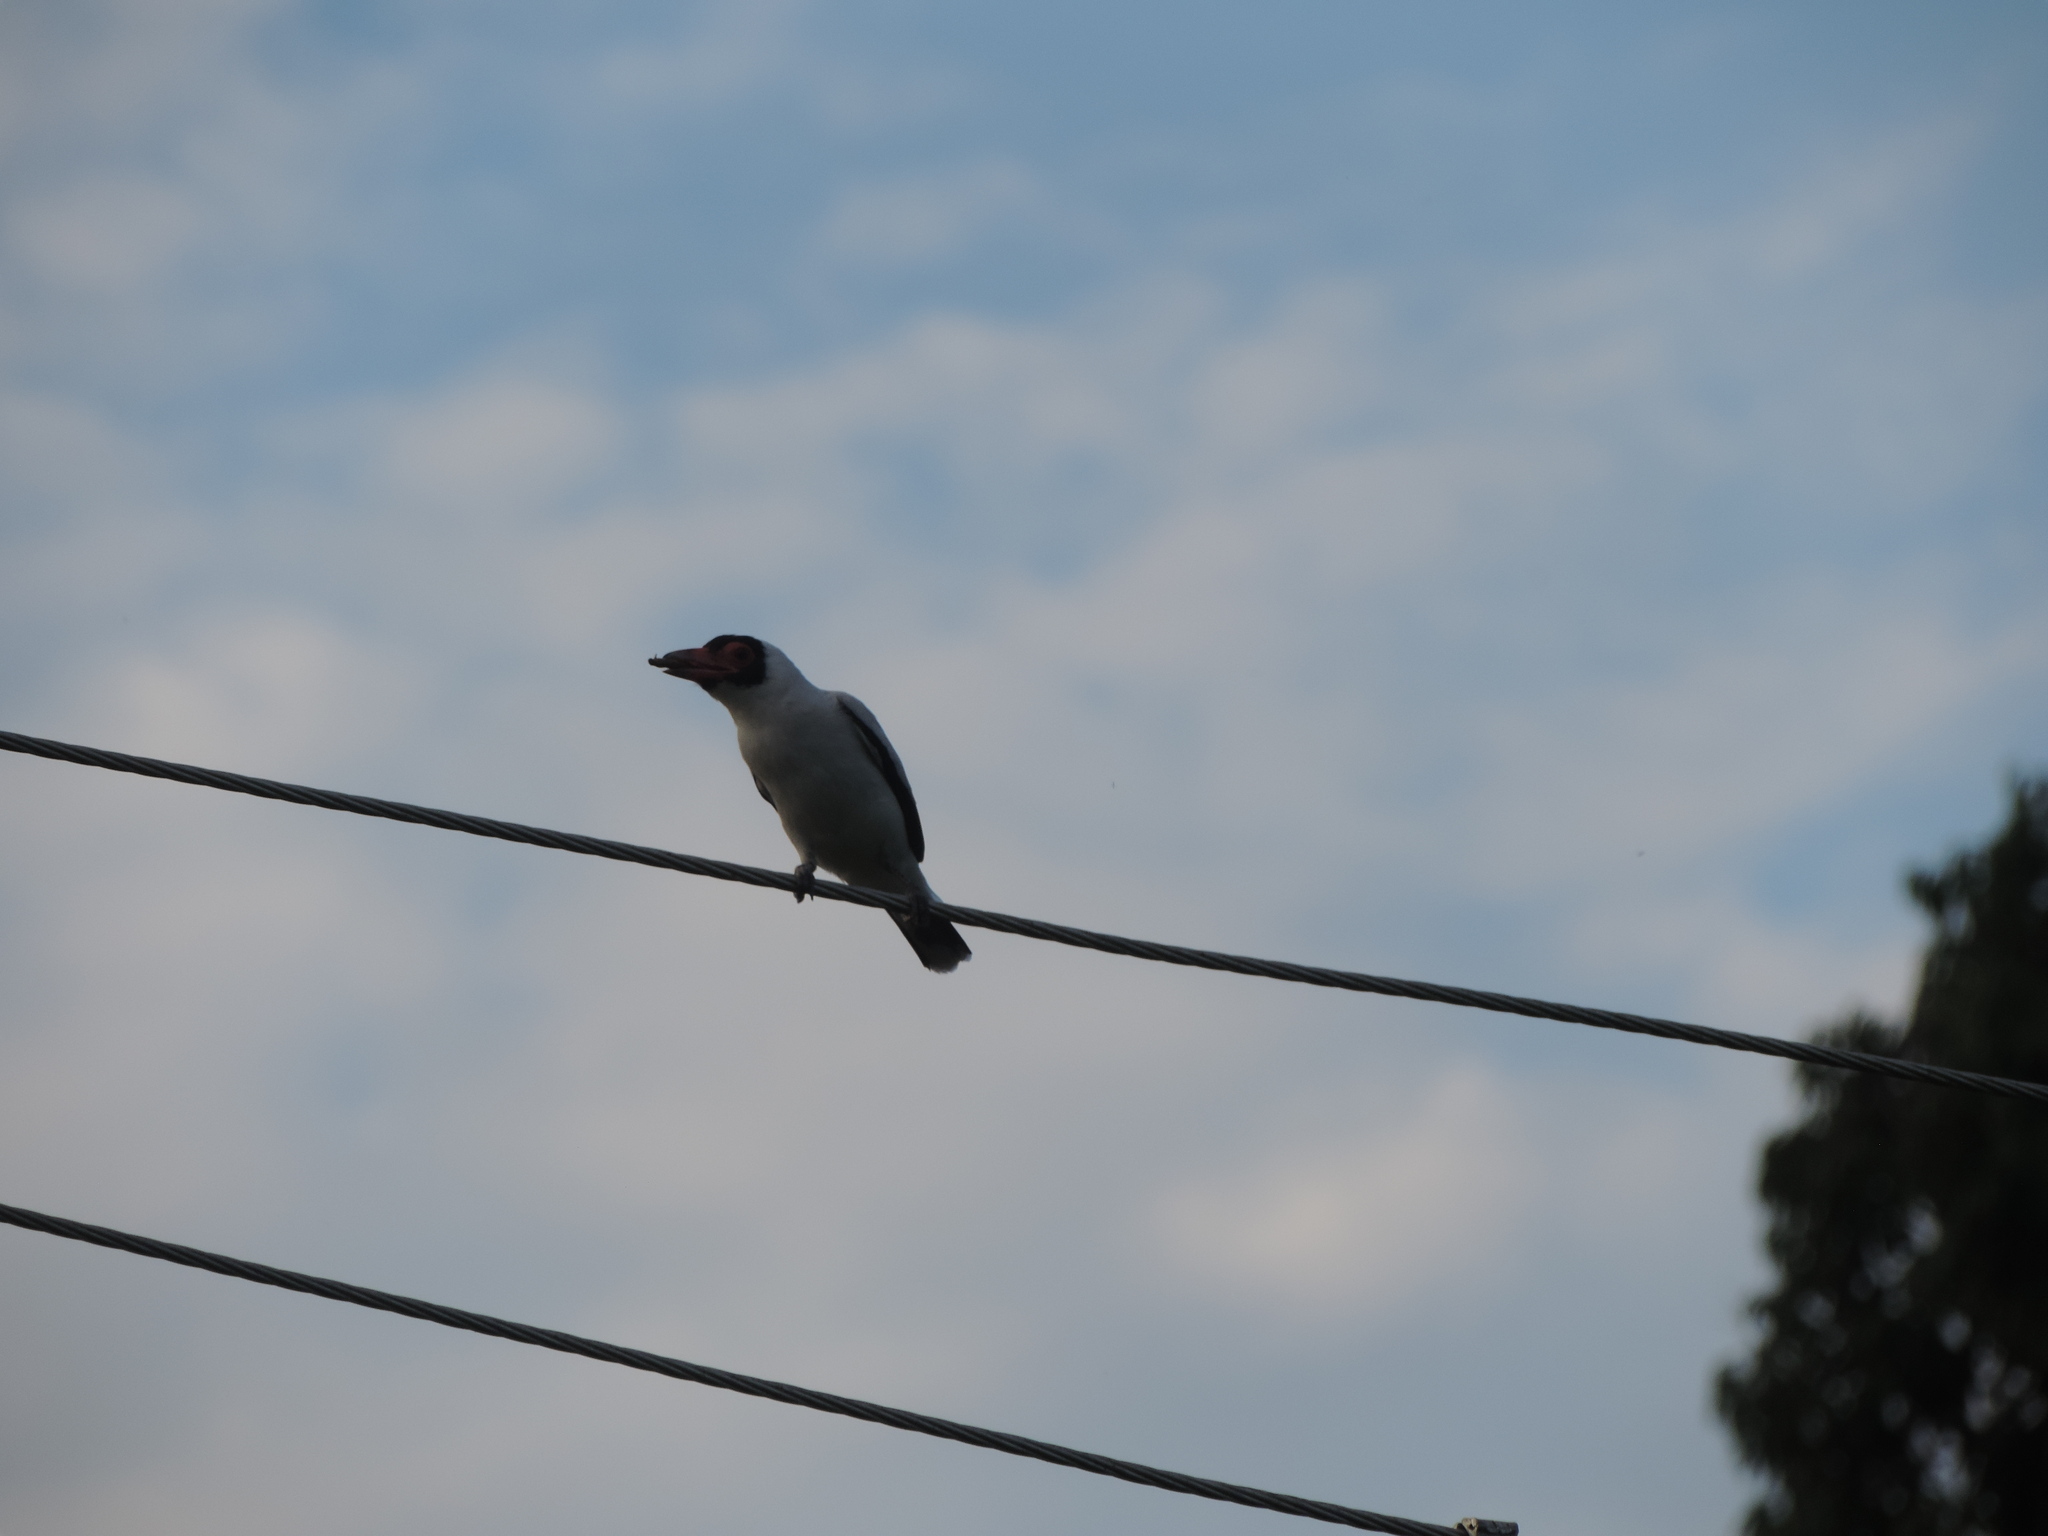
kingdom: Animalia
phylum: Chordata
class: Aves
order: Passeriformes
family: Cotingidae
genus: Tityra
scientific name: Tityra semifasciata
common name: Masked tityra
